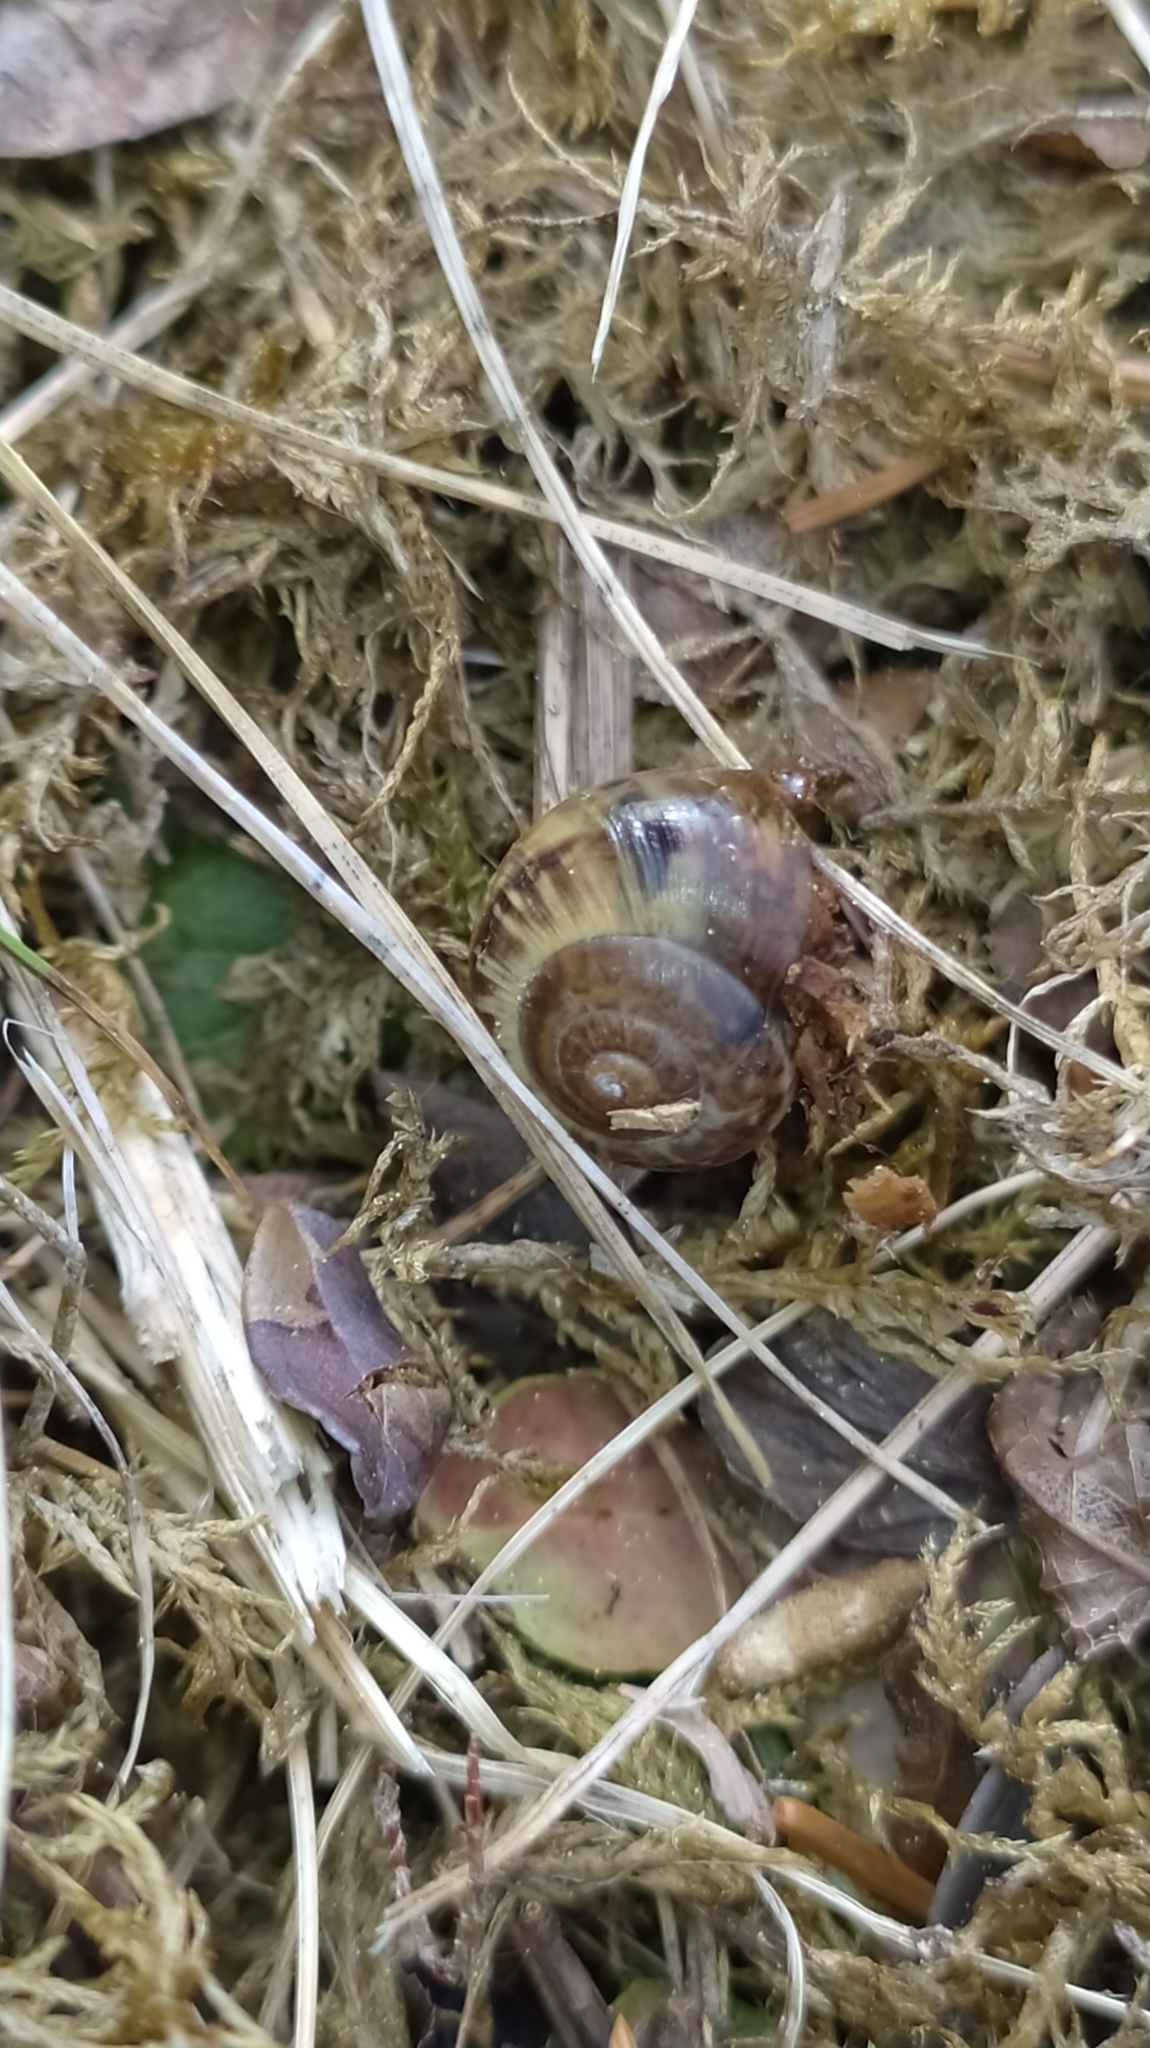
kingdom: Animalia
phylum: Mollusca
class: Gastropoda
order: Stylommatophora
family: Helicidae
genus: Arianta
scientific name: Arianta arbustorum
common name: Copse snail
